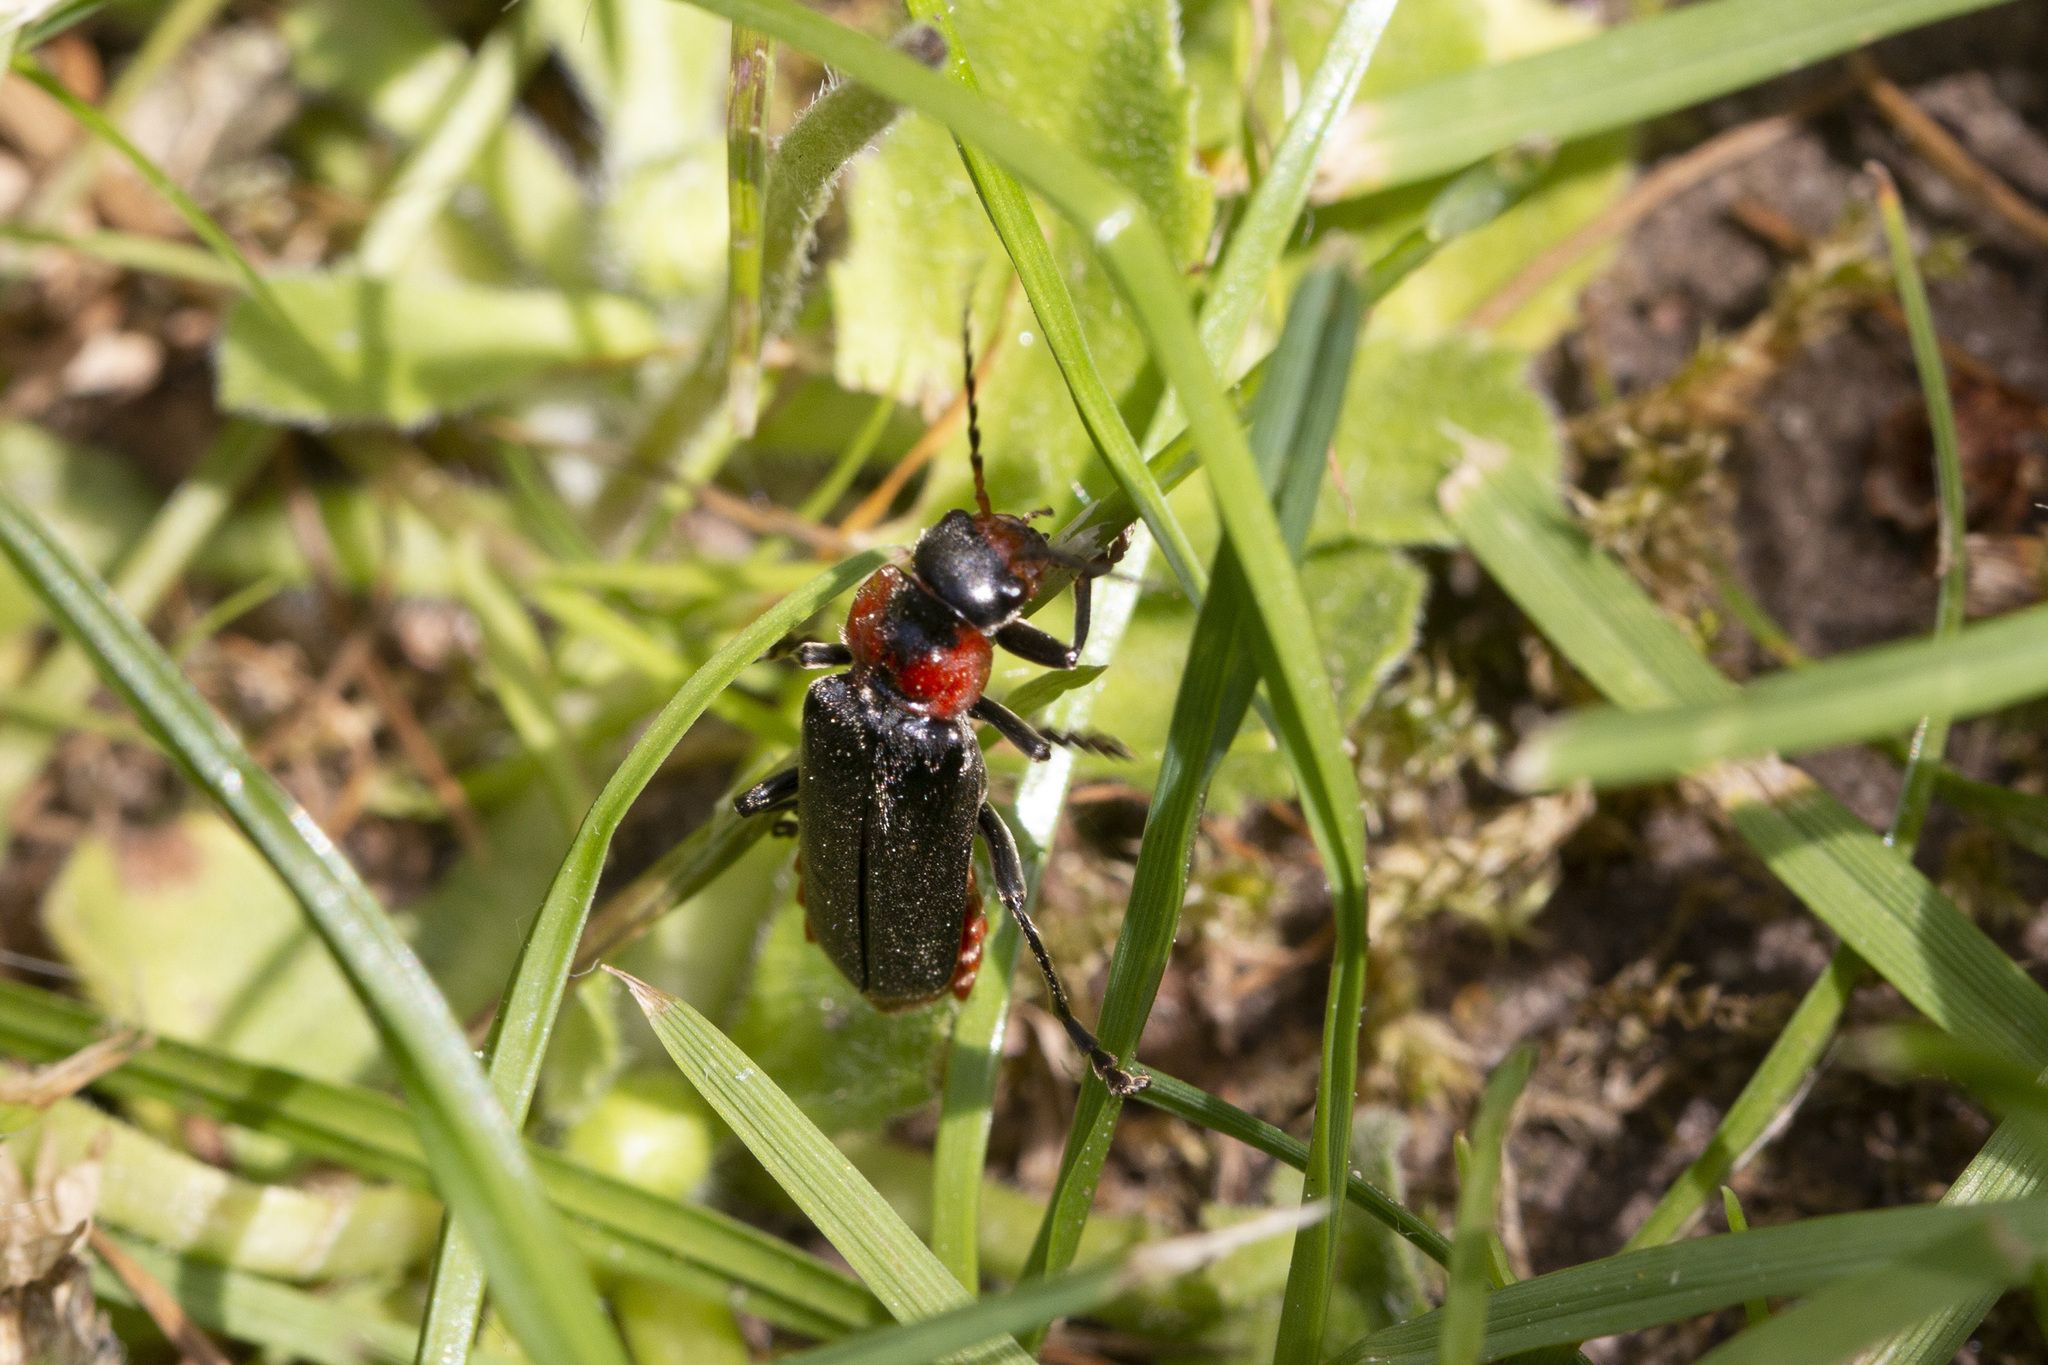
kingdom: Animalia
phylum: Arthropoda
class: Insecta
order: Coleoptera
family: Cantharidae
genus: Cantharis
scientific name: Cantharis fusca
